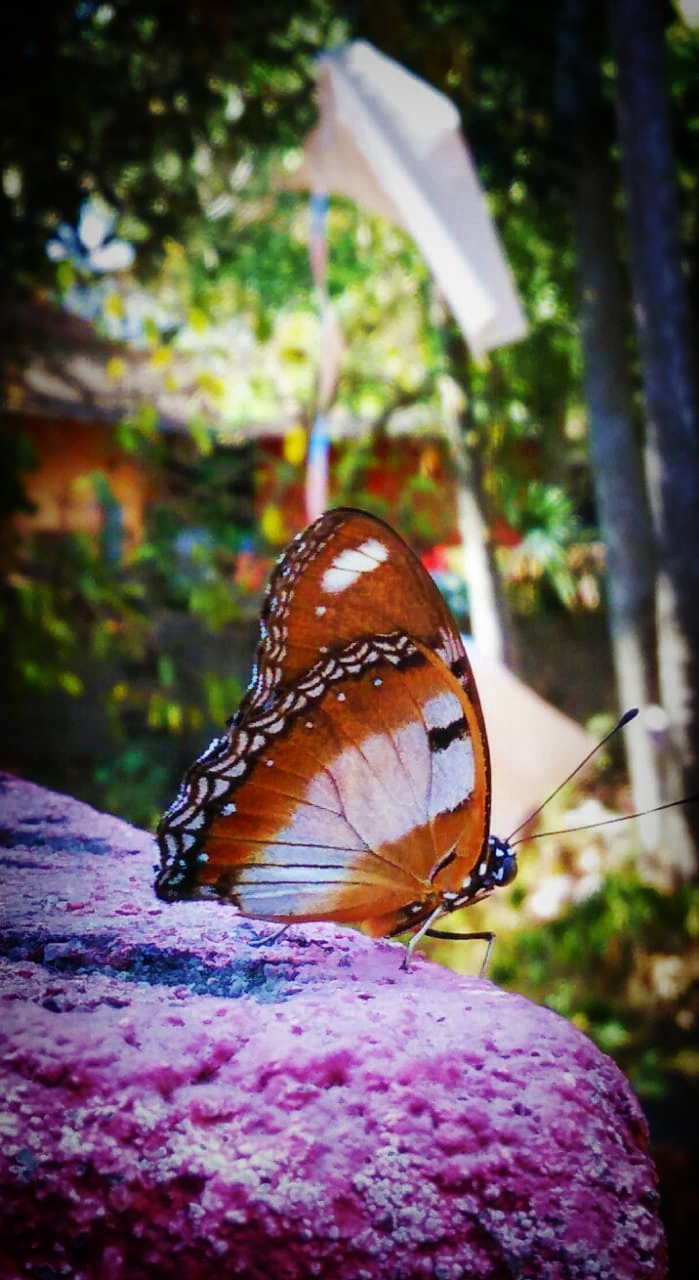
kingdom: Animalia
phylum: Arthropoda
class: Insecta
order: Lepidoptera
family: Nymphalidae
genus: Hypolimnas
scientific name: Hypolimnas misippus
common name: False plain tiger
